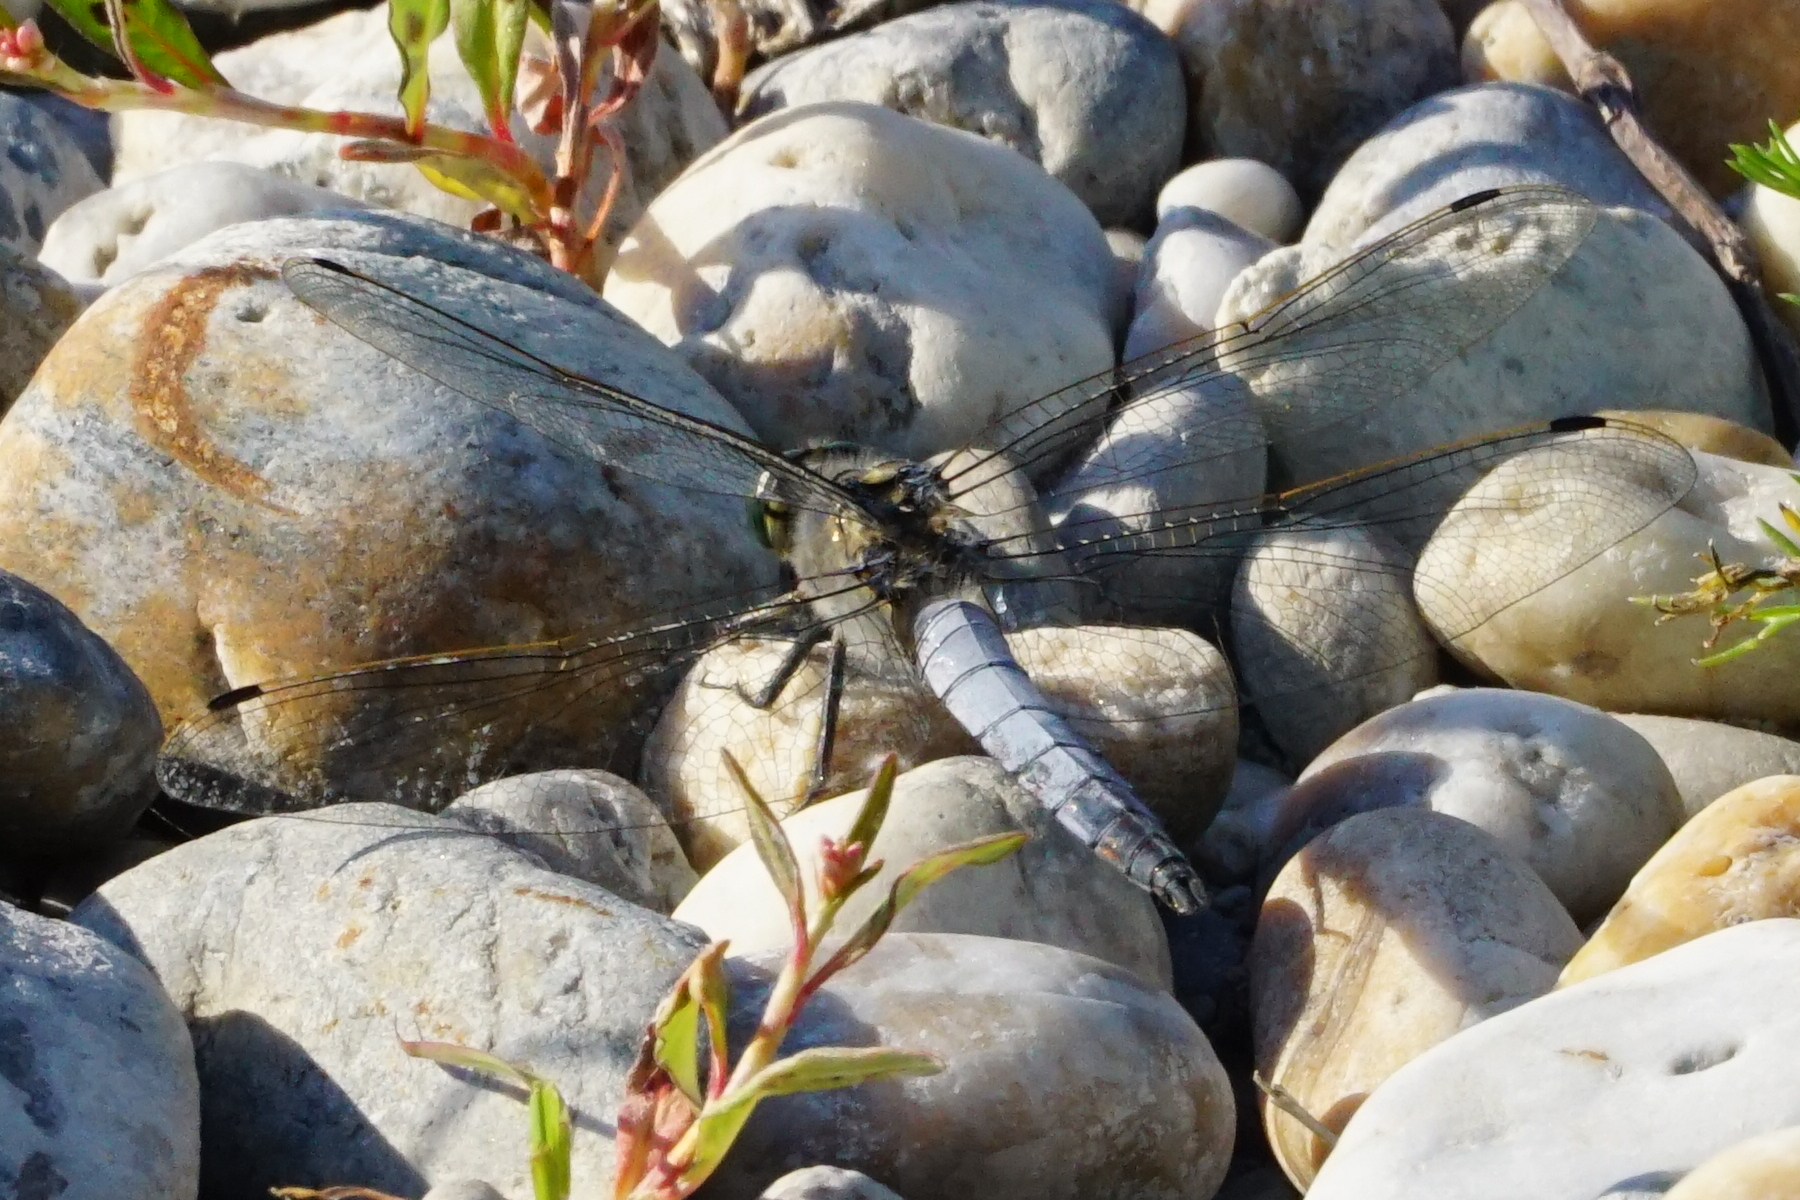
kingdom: Animalia
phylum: Arthropoda
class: Insecta
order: Odonata
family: Libellulidae
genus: Orthetrum
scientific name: Orthetrum cancellatum
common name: Black-tailed skimmer
